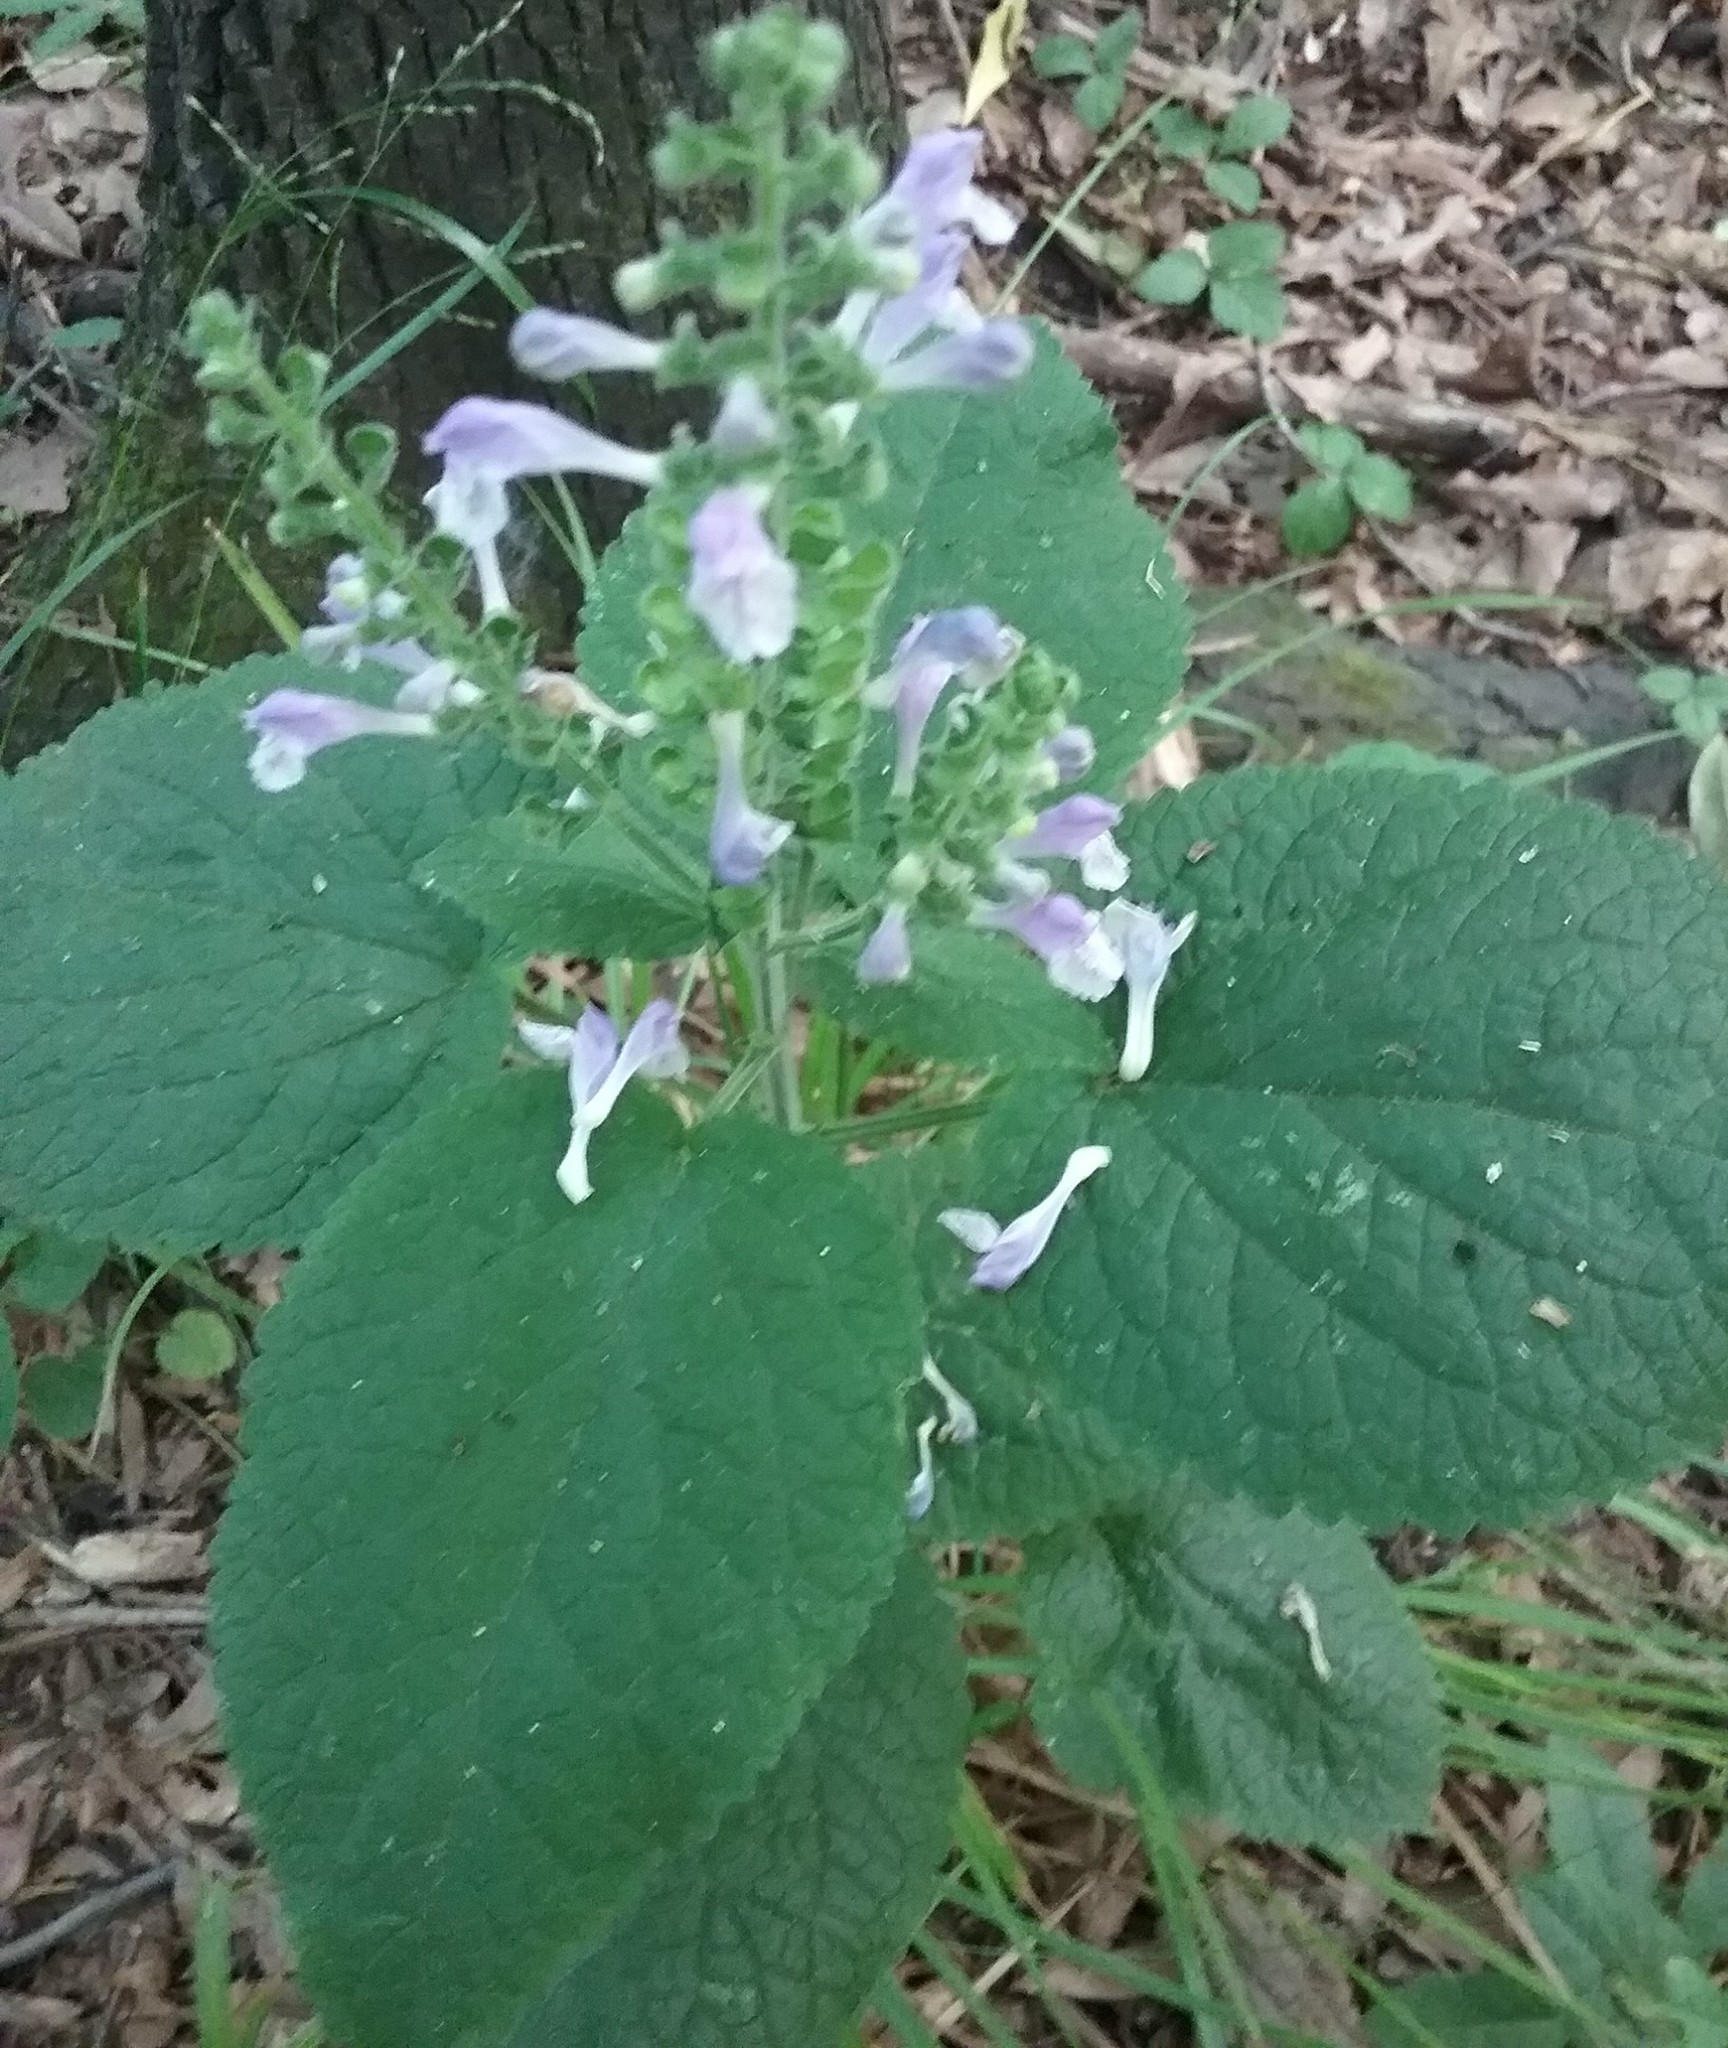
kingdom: Plantae
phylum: Tracheophyta
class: Magnoliopsida
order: Lamiales
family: Lamiaceae
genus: Scutellaria
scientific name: Scutellaria ovata
